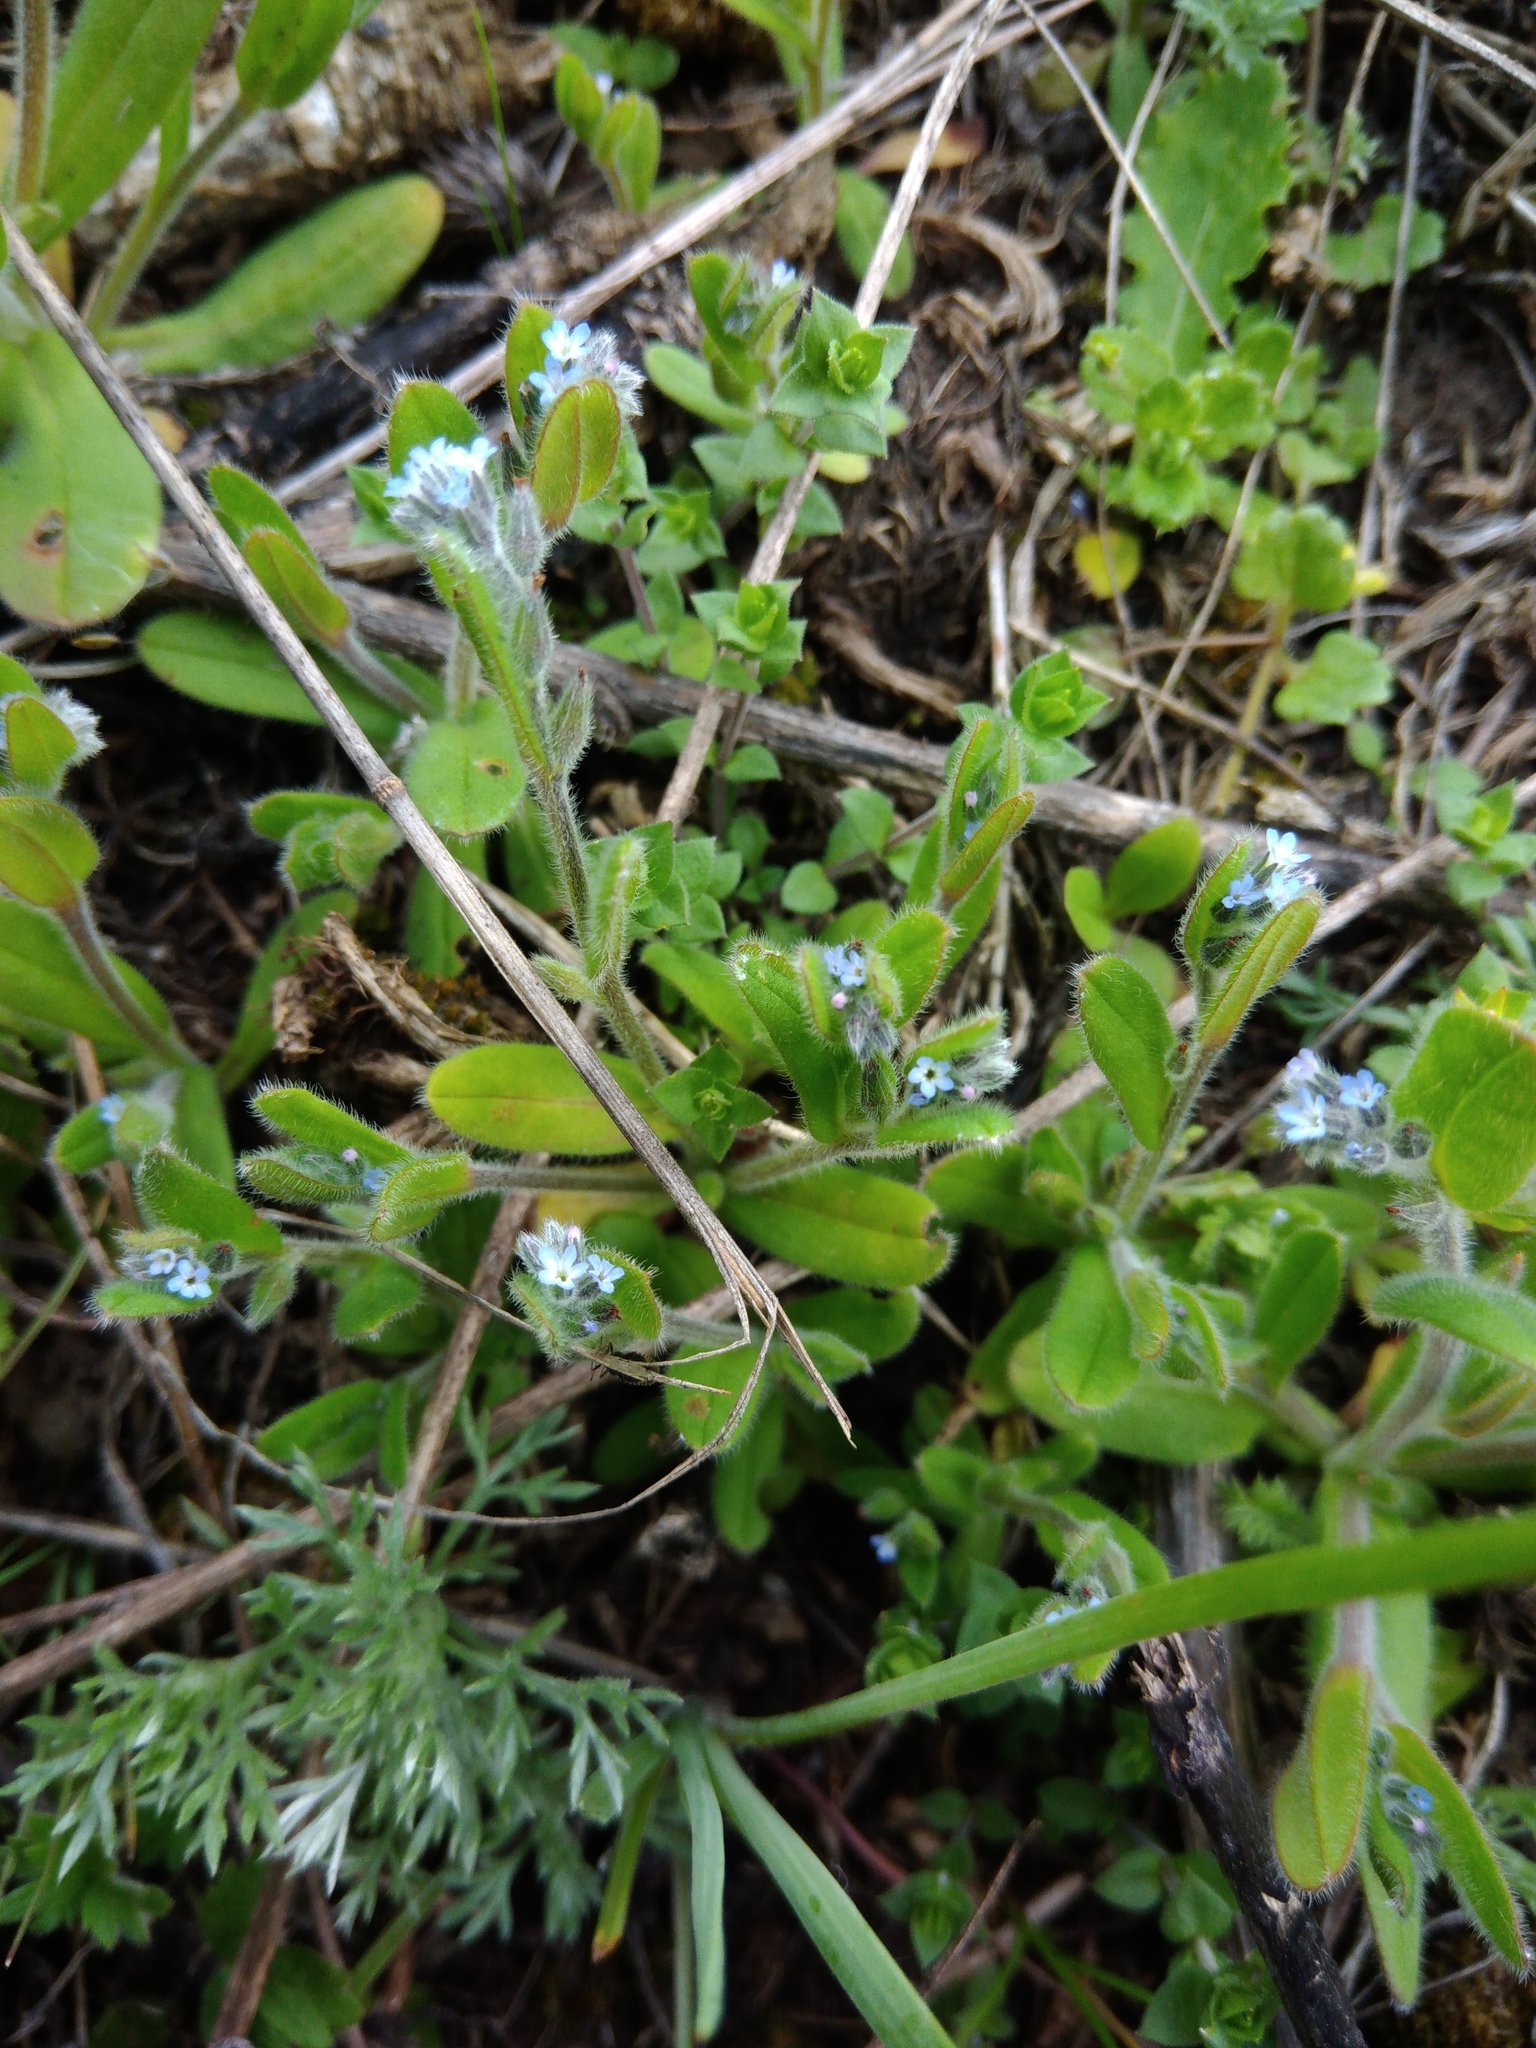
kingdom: Plantae
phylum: Tracheophyta
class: Magnoliopsida
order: Boraginales
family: Boraginaceae
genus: Myosotis
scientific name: Myosotis stricta
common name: Strict forget-me-not
